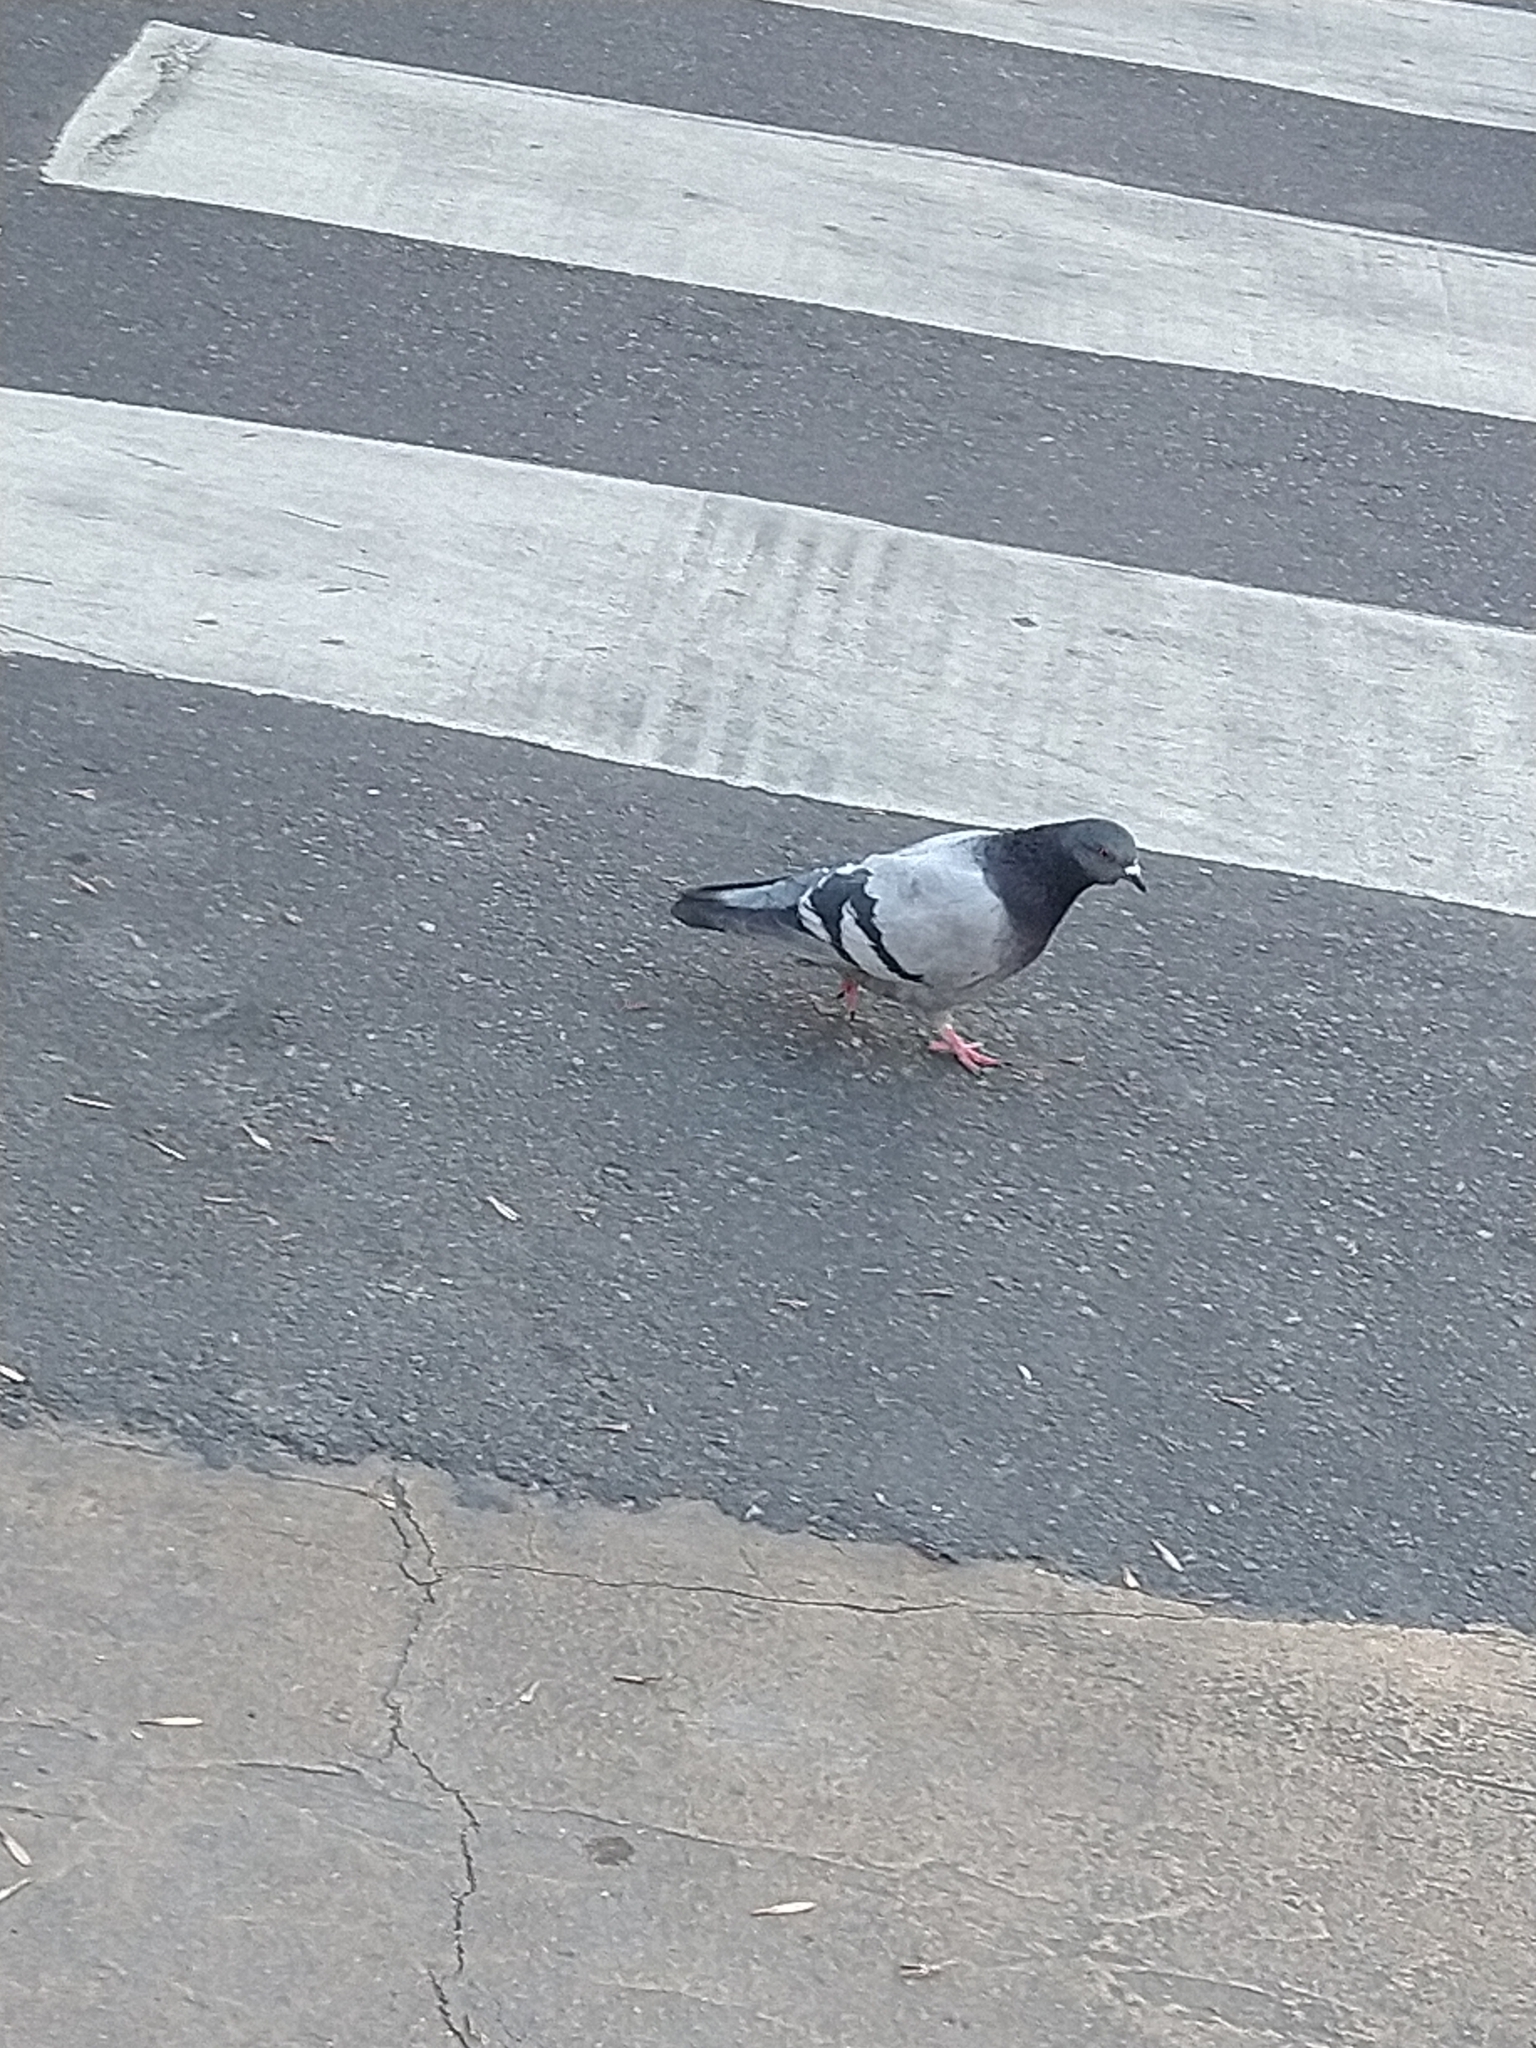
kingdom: Animalia
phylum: Chordata
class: Aves
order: Columbiformes
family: Columbidae
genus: Columba
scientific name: Columba livia
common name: Rock pigeon
